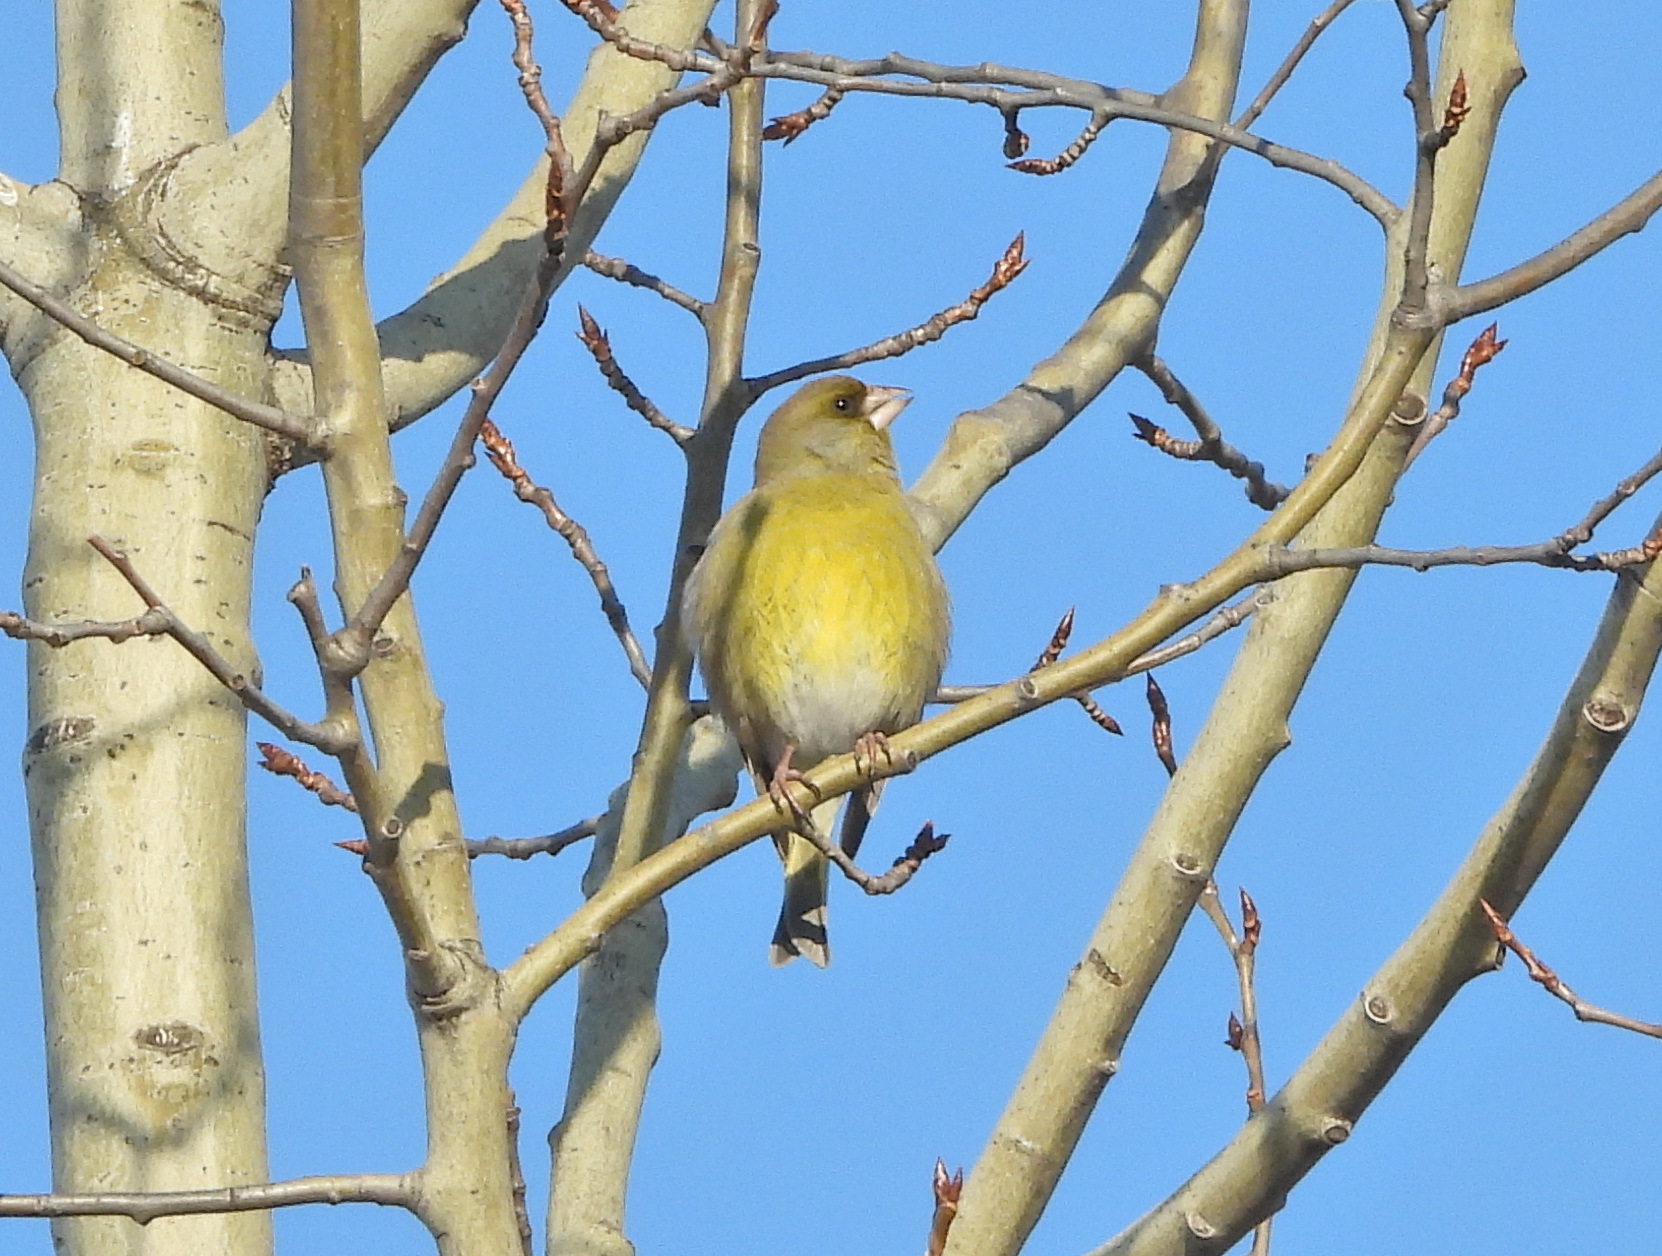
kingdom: Plantae
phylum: Tracheophyta
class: Liliopsida
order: Poales
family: Poaceae
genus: Chloris
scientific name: Chloris chloris
